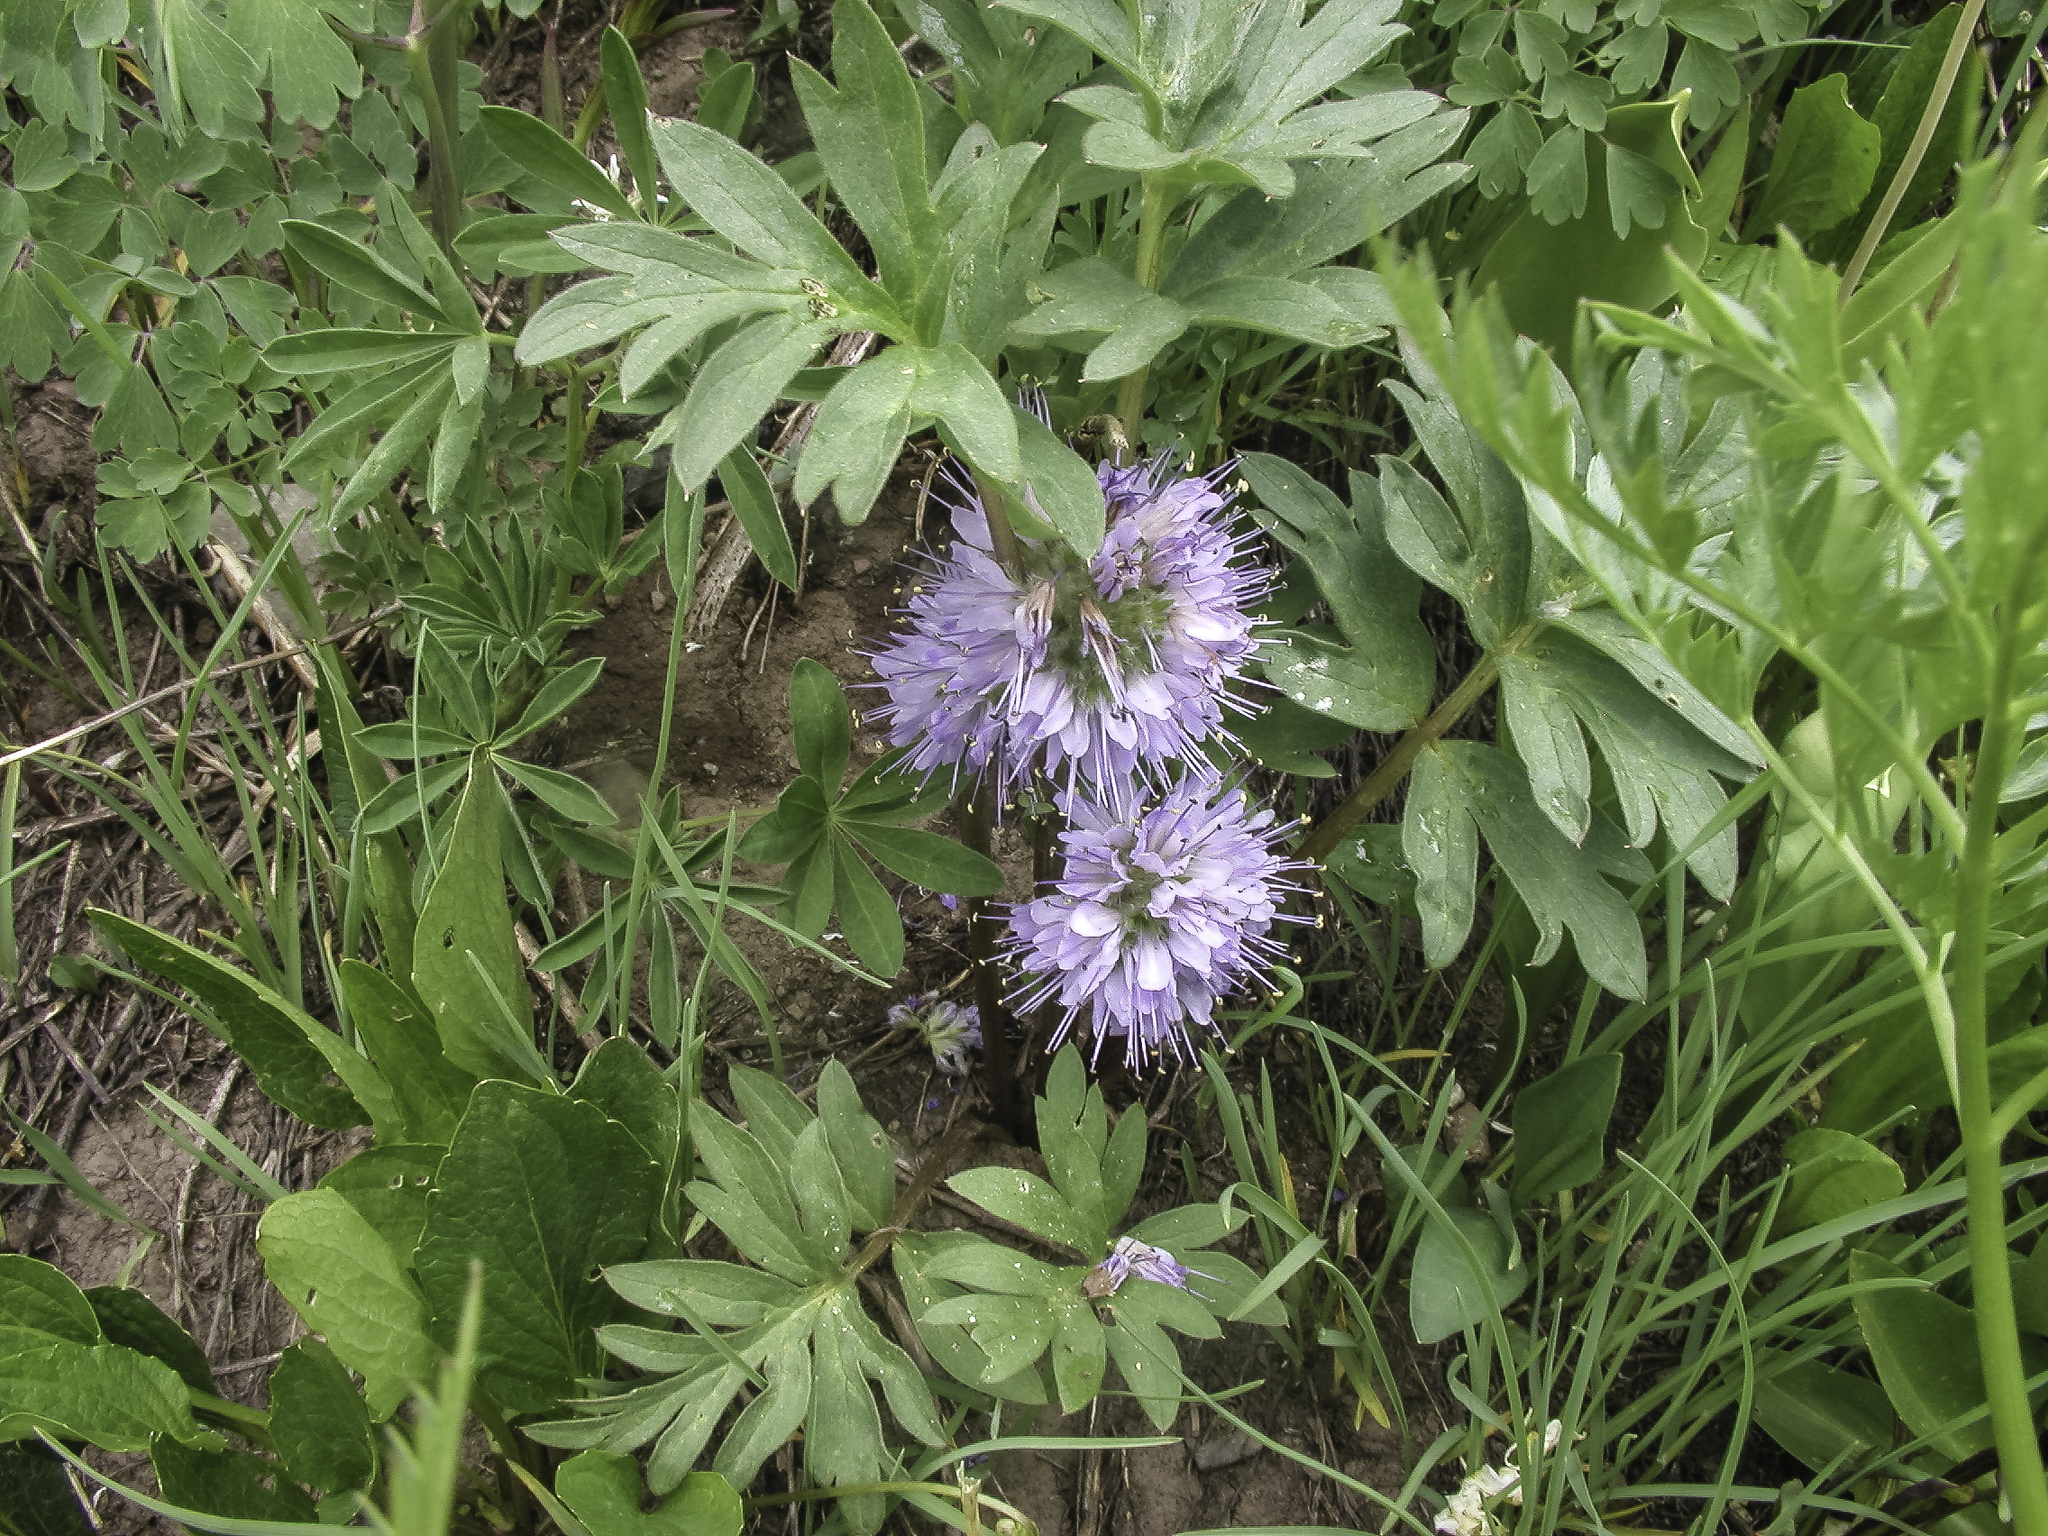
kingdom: Plantae
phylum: Tracheophyta
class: Magnoliopsida
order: Boraginales
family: Hydrophyllaceae
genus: Hydrophyllum
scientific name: Hydrophyllum capitatum
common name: Woollen-breeches
